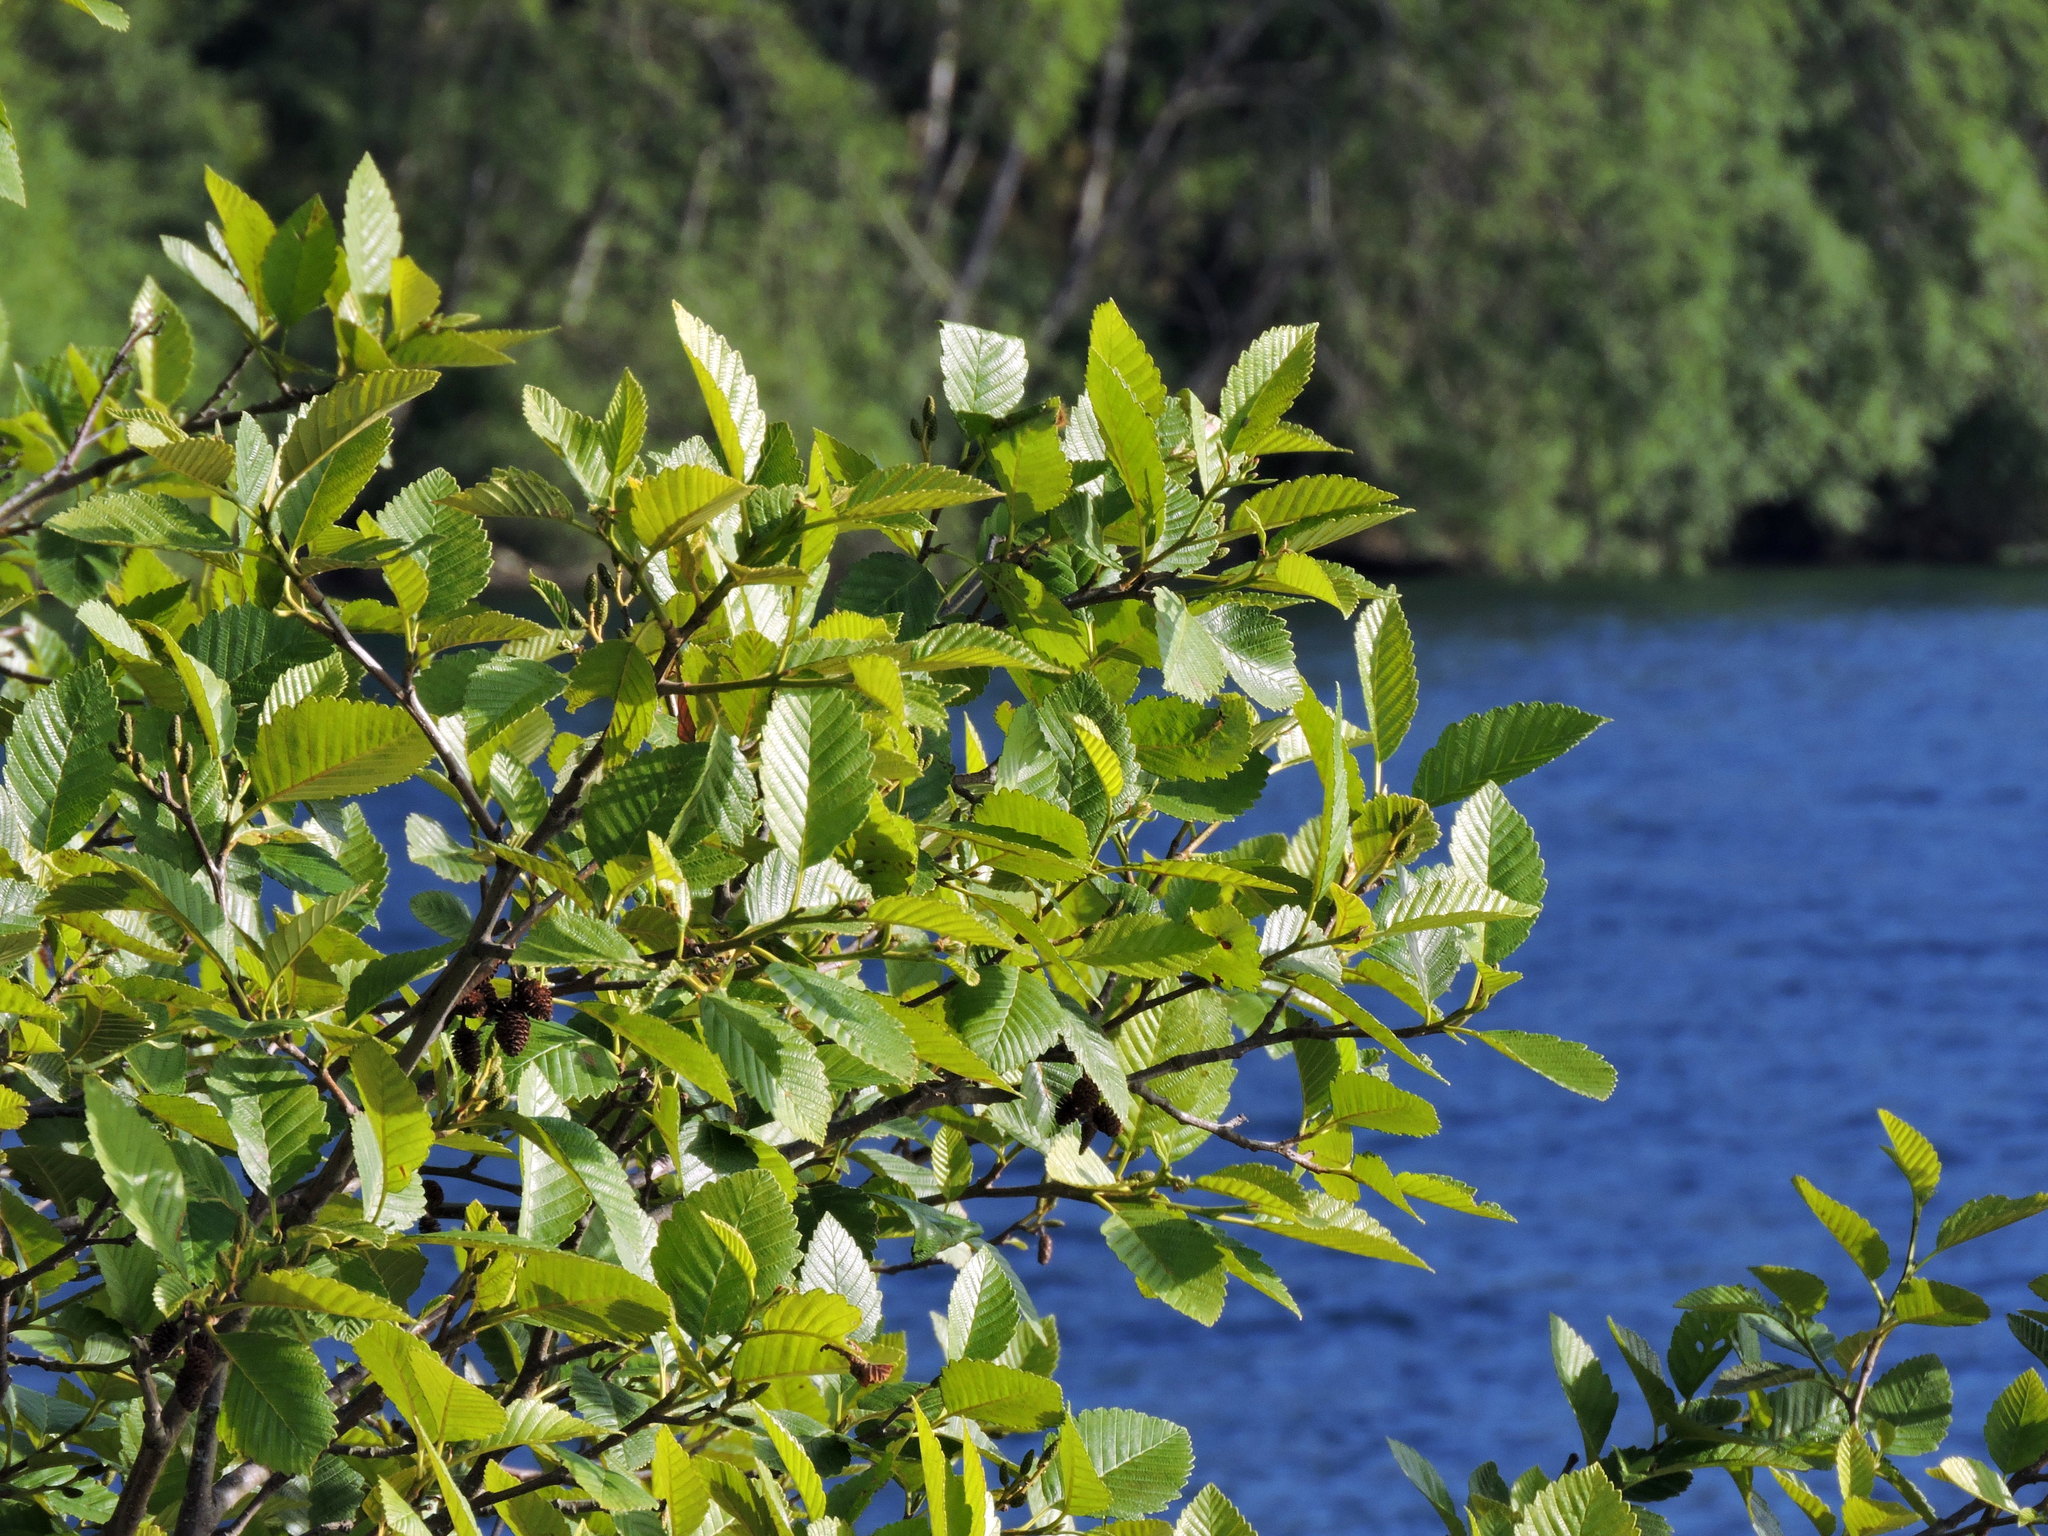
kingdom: Plantae
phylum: Tracheophyta
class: Magnoliopsida
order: Fagales
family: Betulaceae
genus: Alnus
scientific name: Alnus rubra
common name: Red alder
